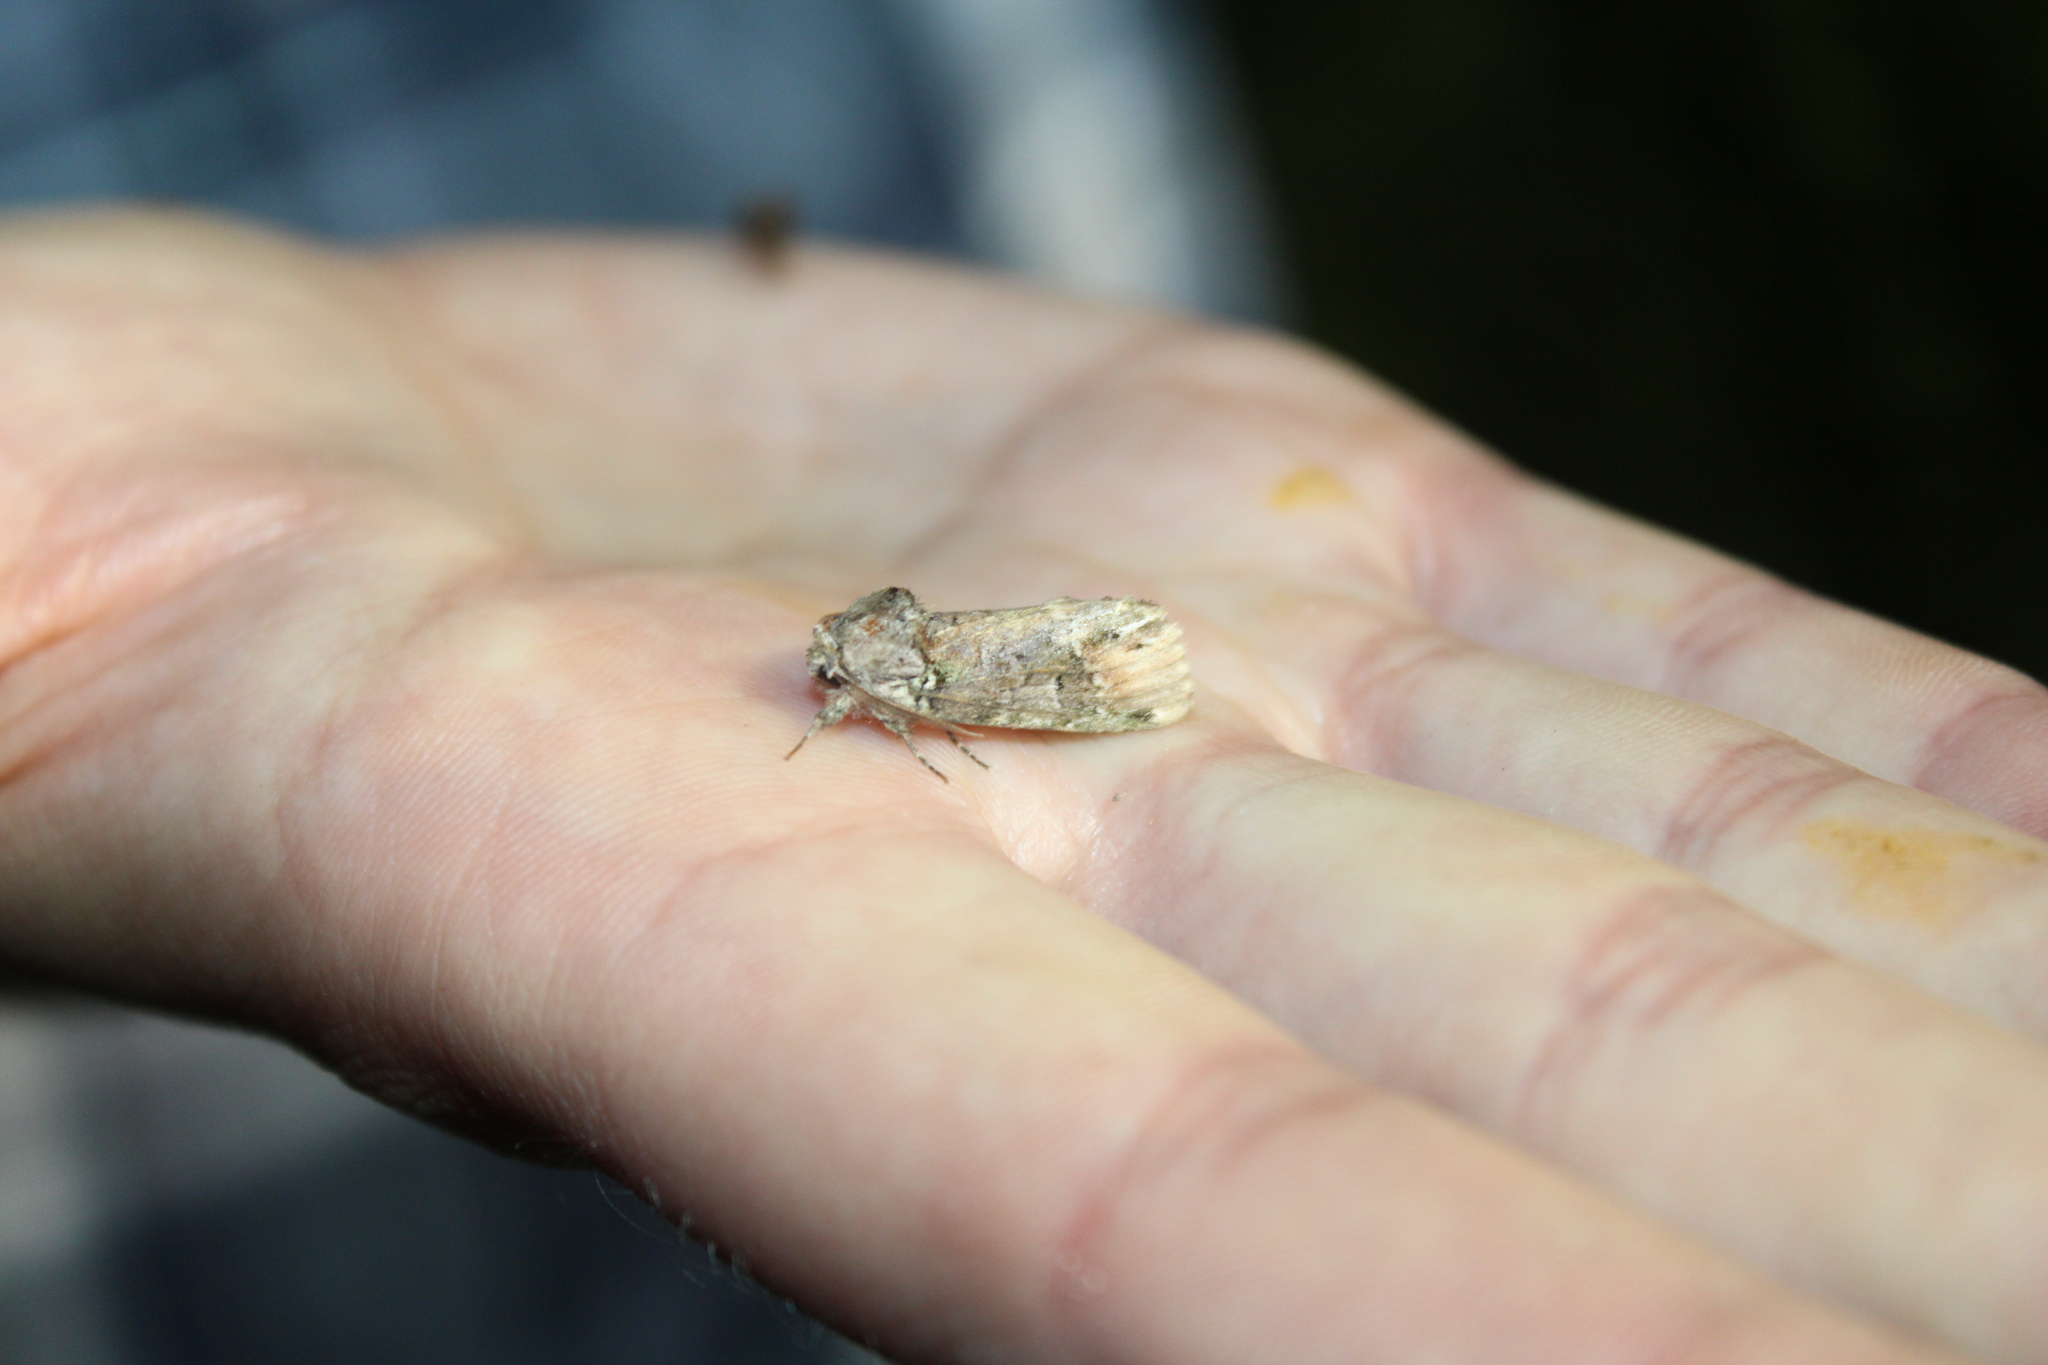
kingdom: Animalia
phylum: Arthropoda
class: Insecta
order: Lepidoptera
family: Notodontidae
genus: Schizura
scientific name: Schizura
